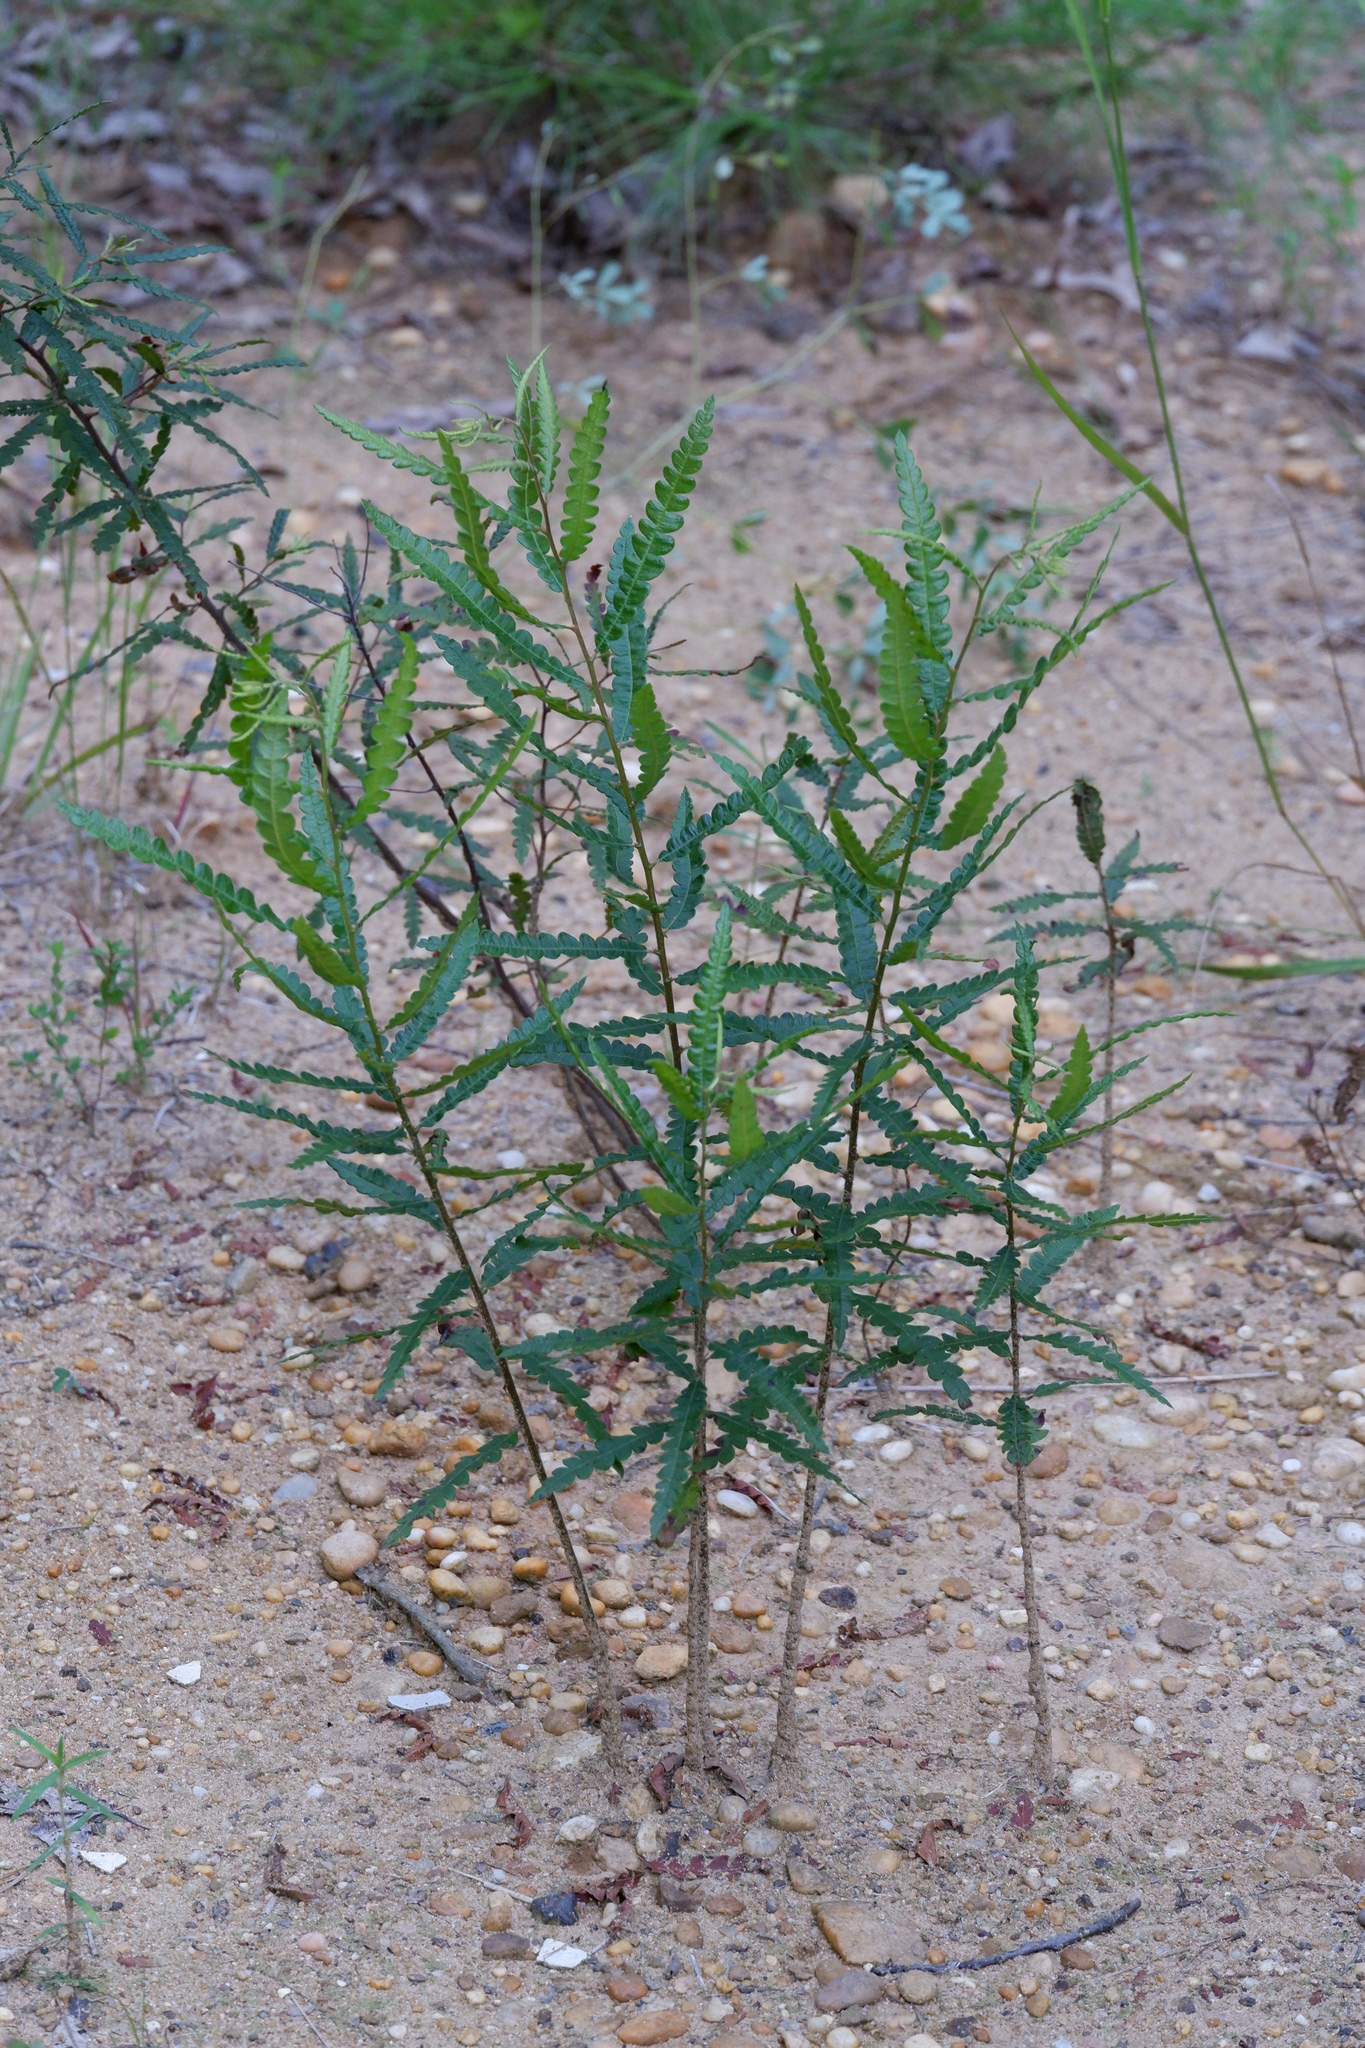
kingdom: Plantae
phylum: Tracheophyta
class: Magnoliopsida
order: Fagales
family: Myricaceae
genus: Comptonia
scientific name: Comptonia peregrina
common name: Sweet-fern
